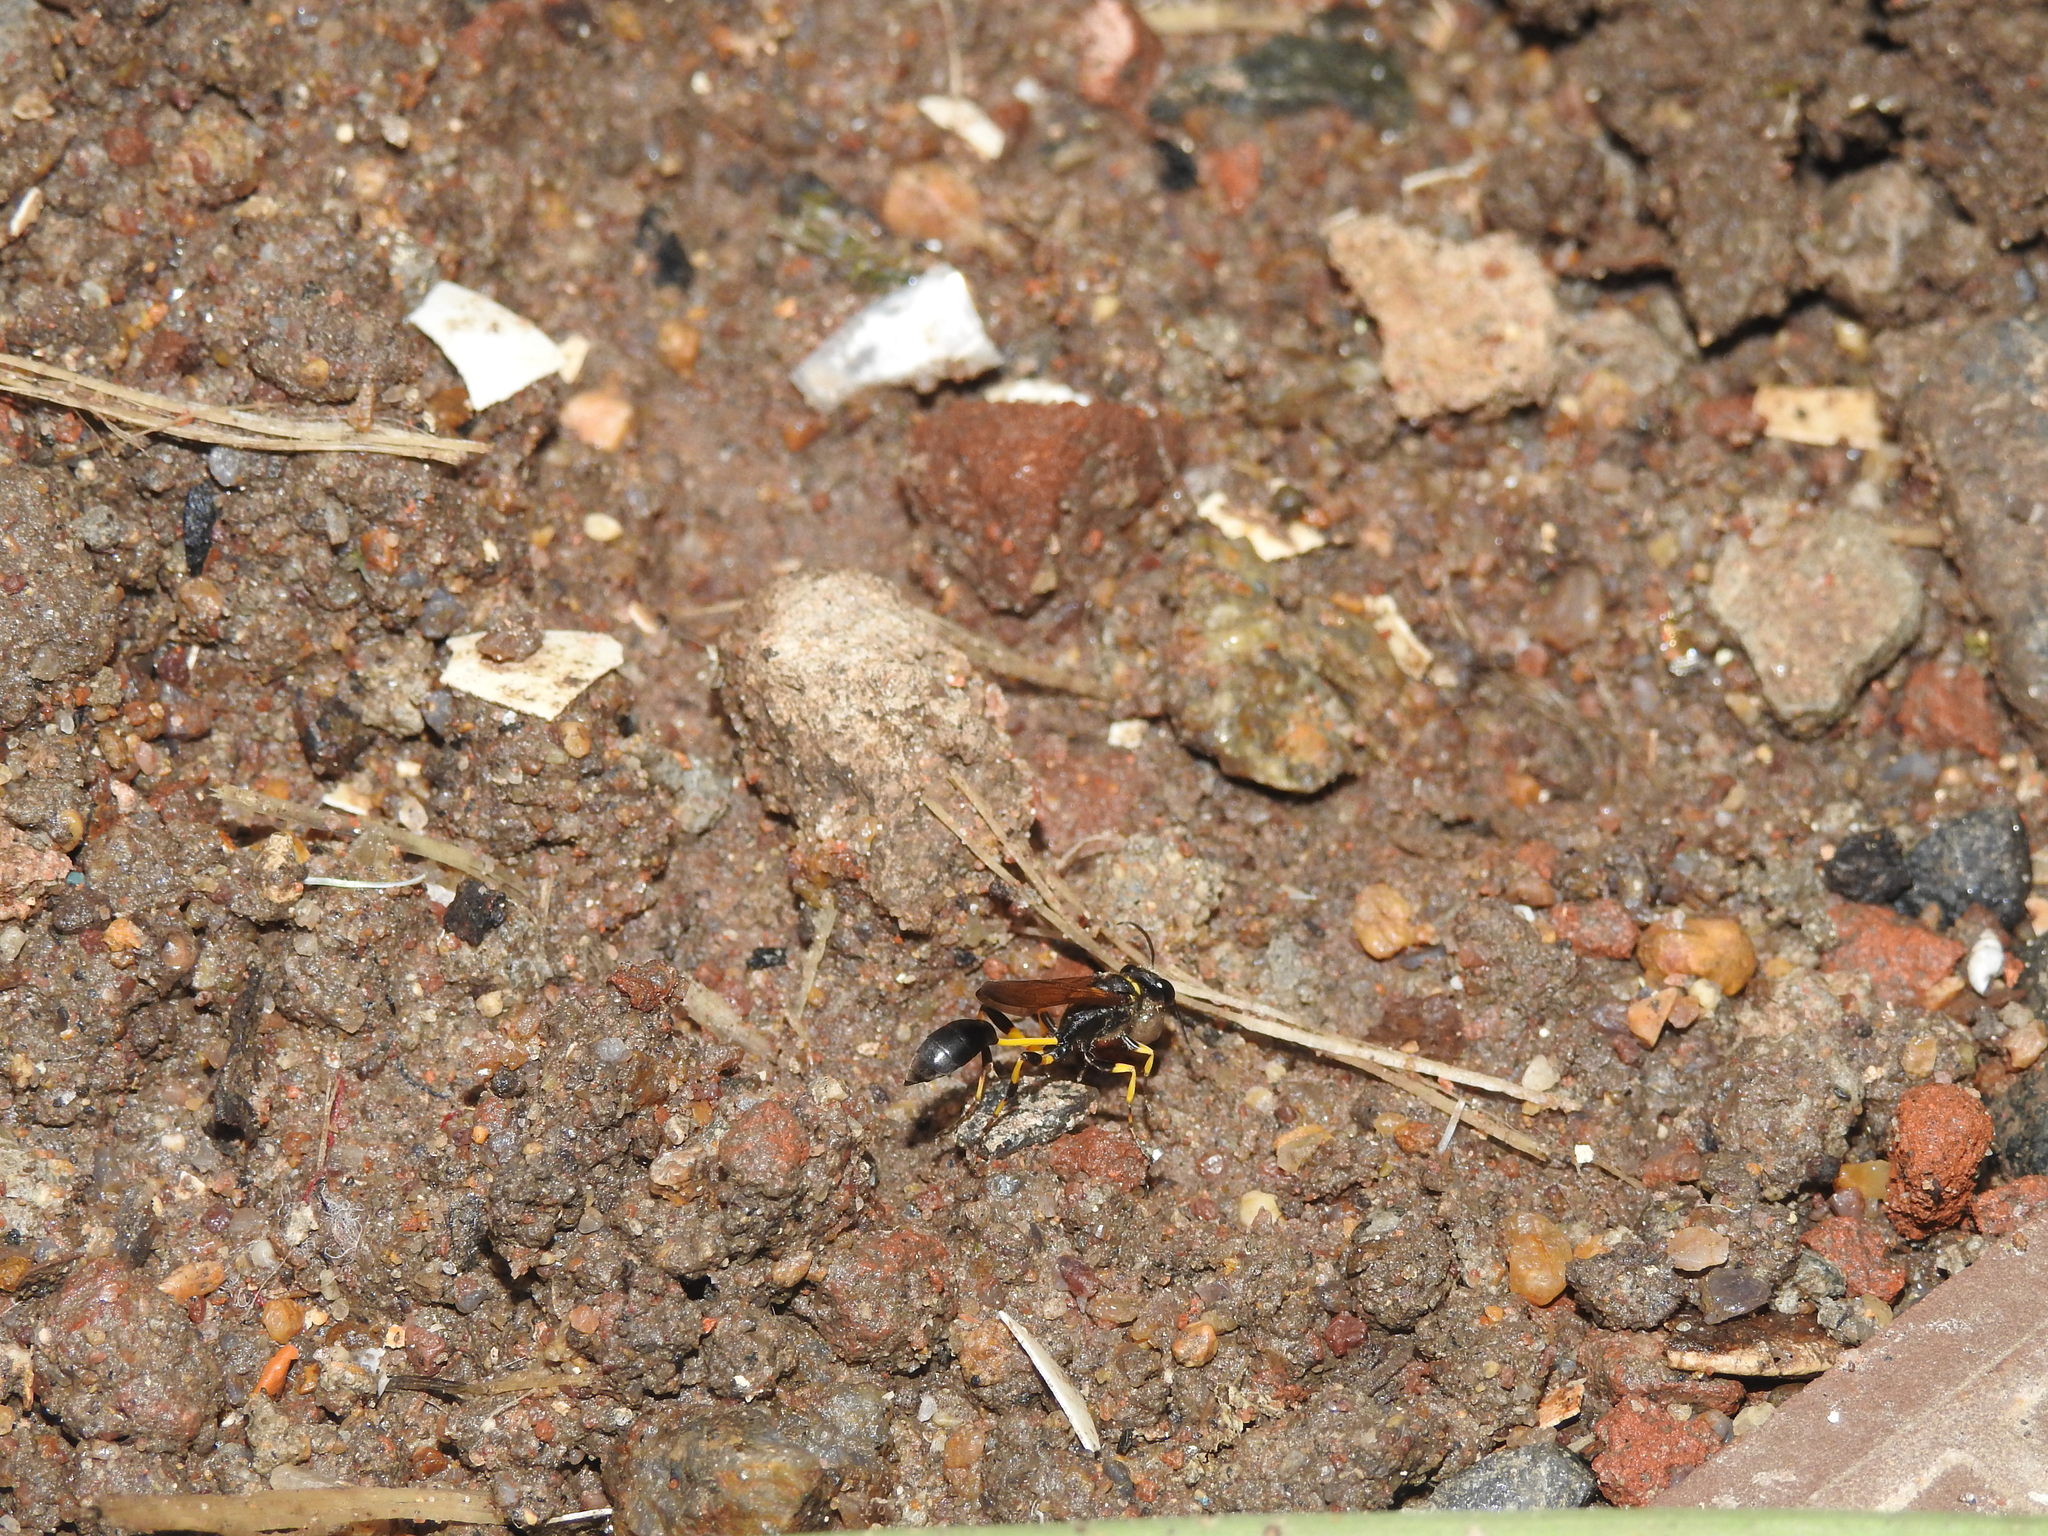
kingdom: Animalia
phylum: Arthropoda
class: Insecta
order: Hymenoptera
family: Sphecidae
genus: Sceliphron
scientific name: Sceliphron madraspatanum
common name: Mud dauber
